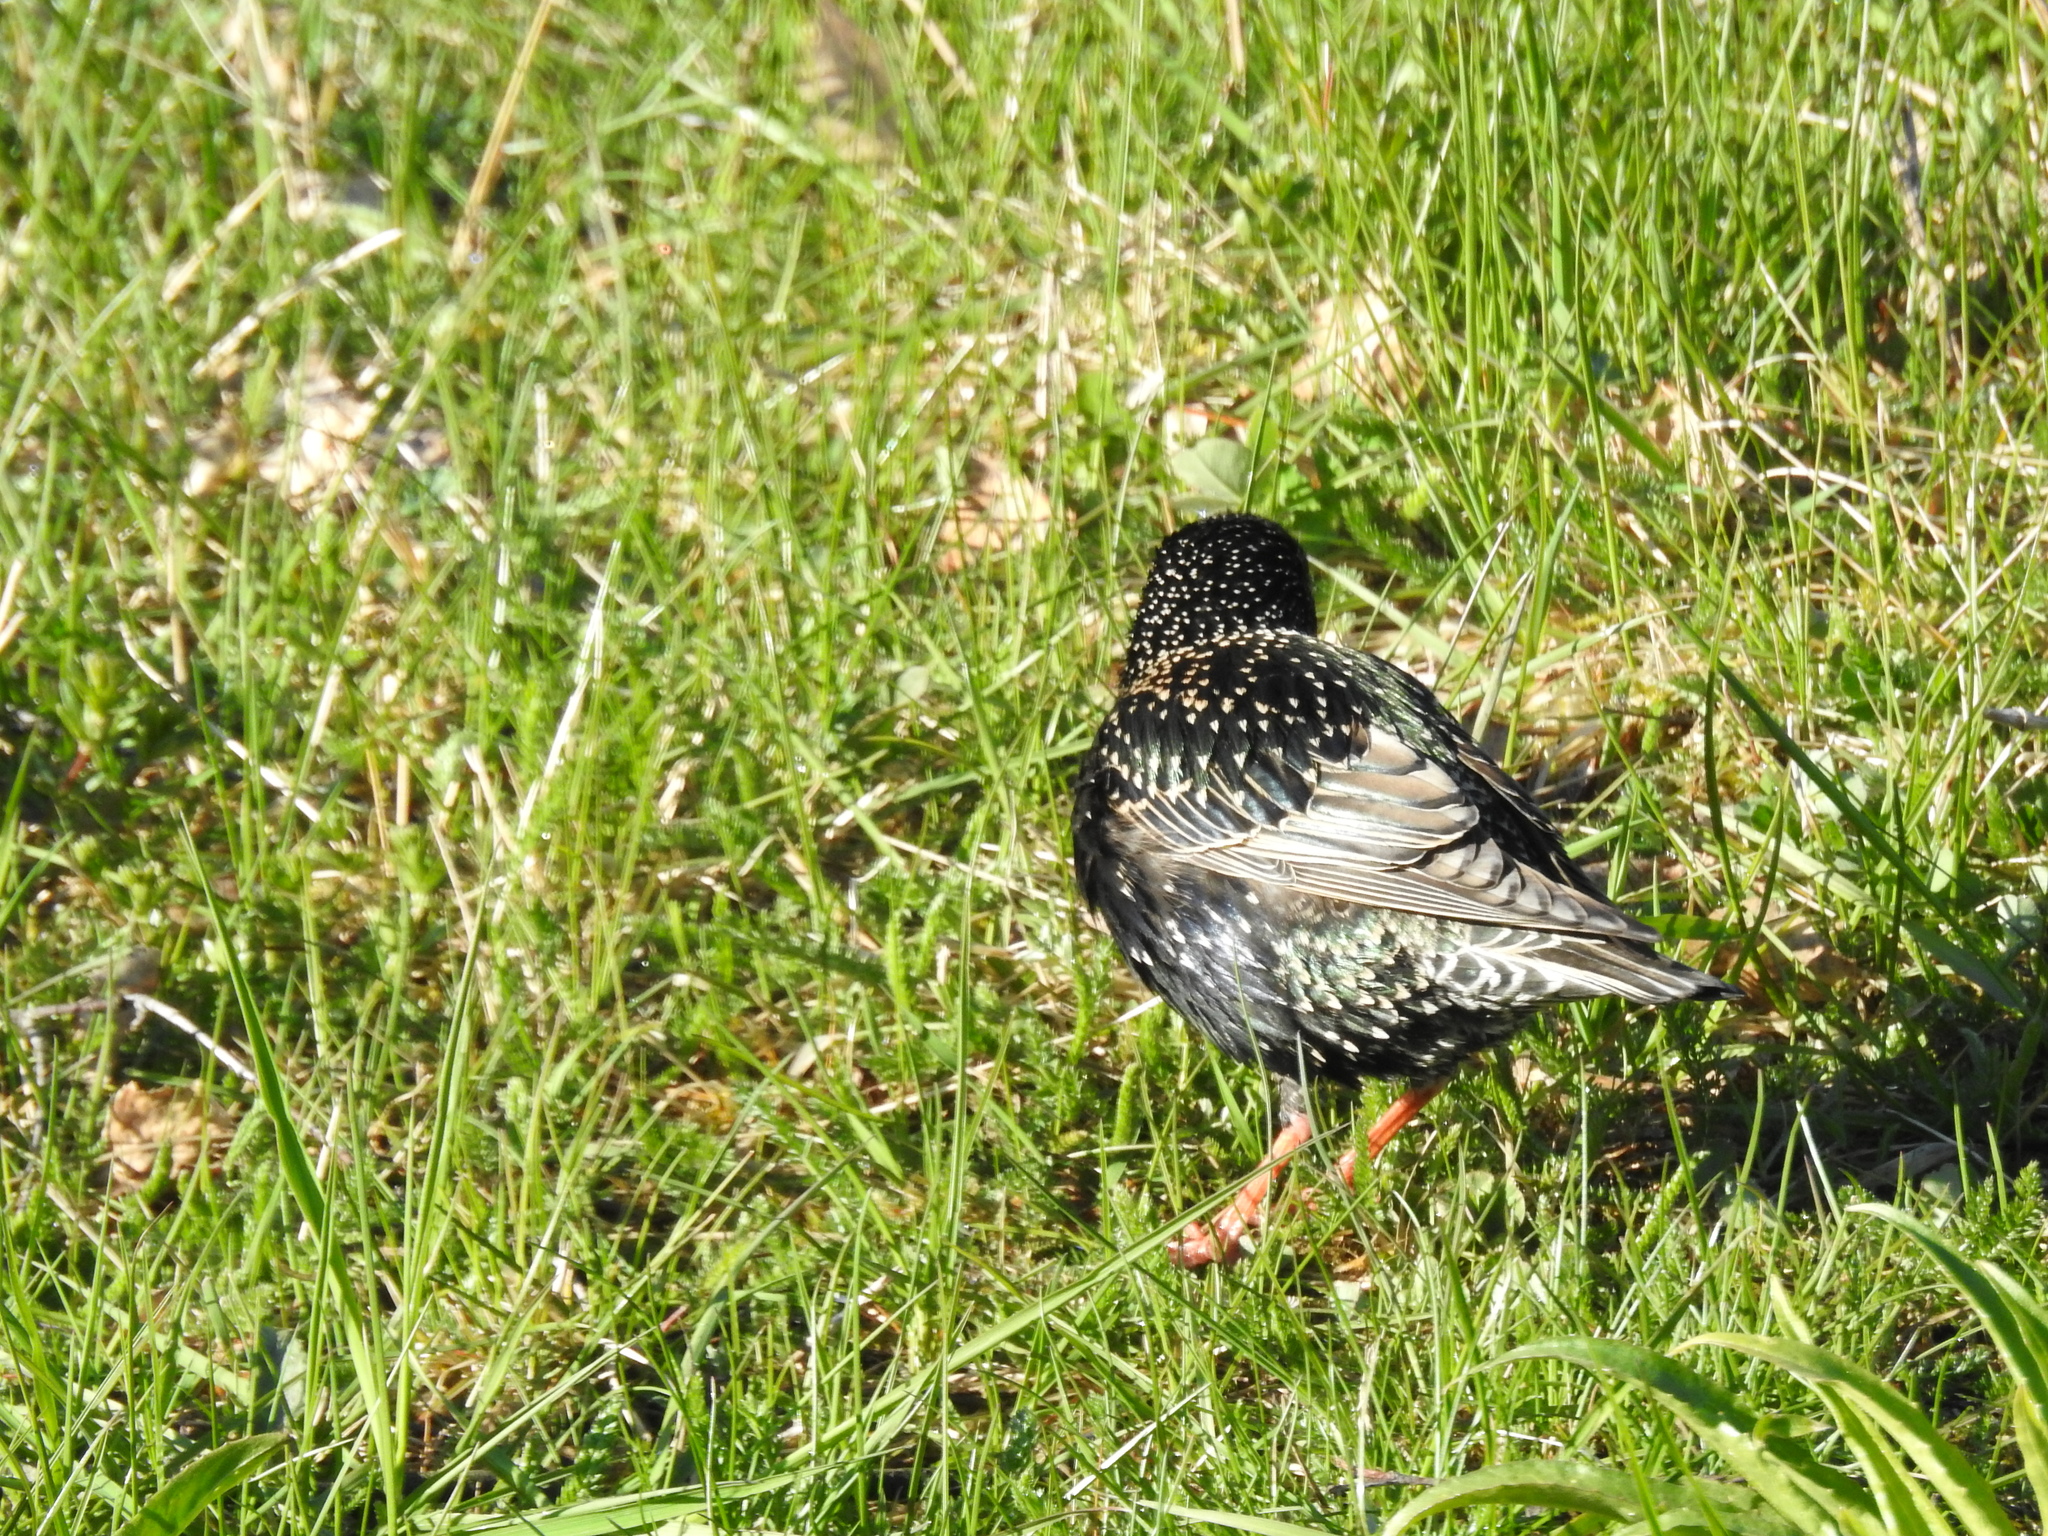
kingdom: Animalia
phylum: Chordata
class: Aves
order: Passeriformes
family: Sturnidae
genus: Sturnus
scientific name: Sturnus vulgaris
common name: Common starling
